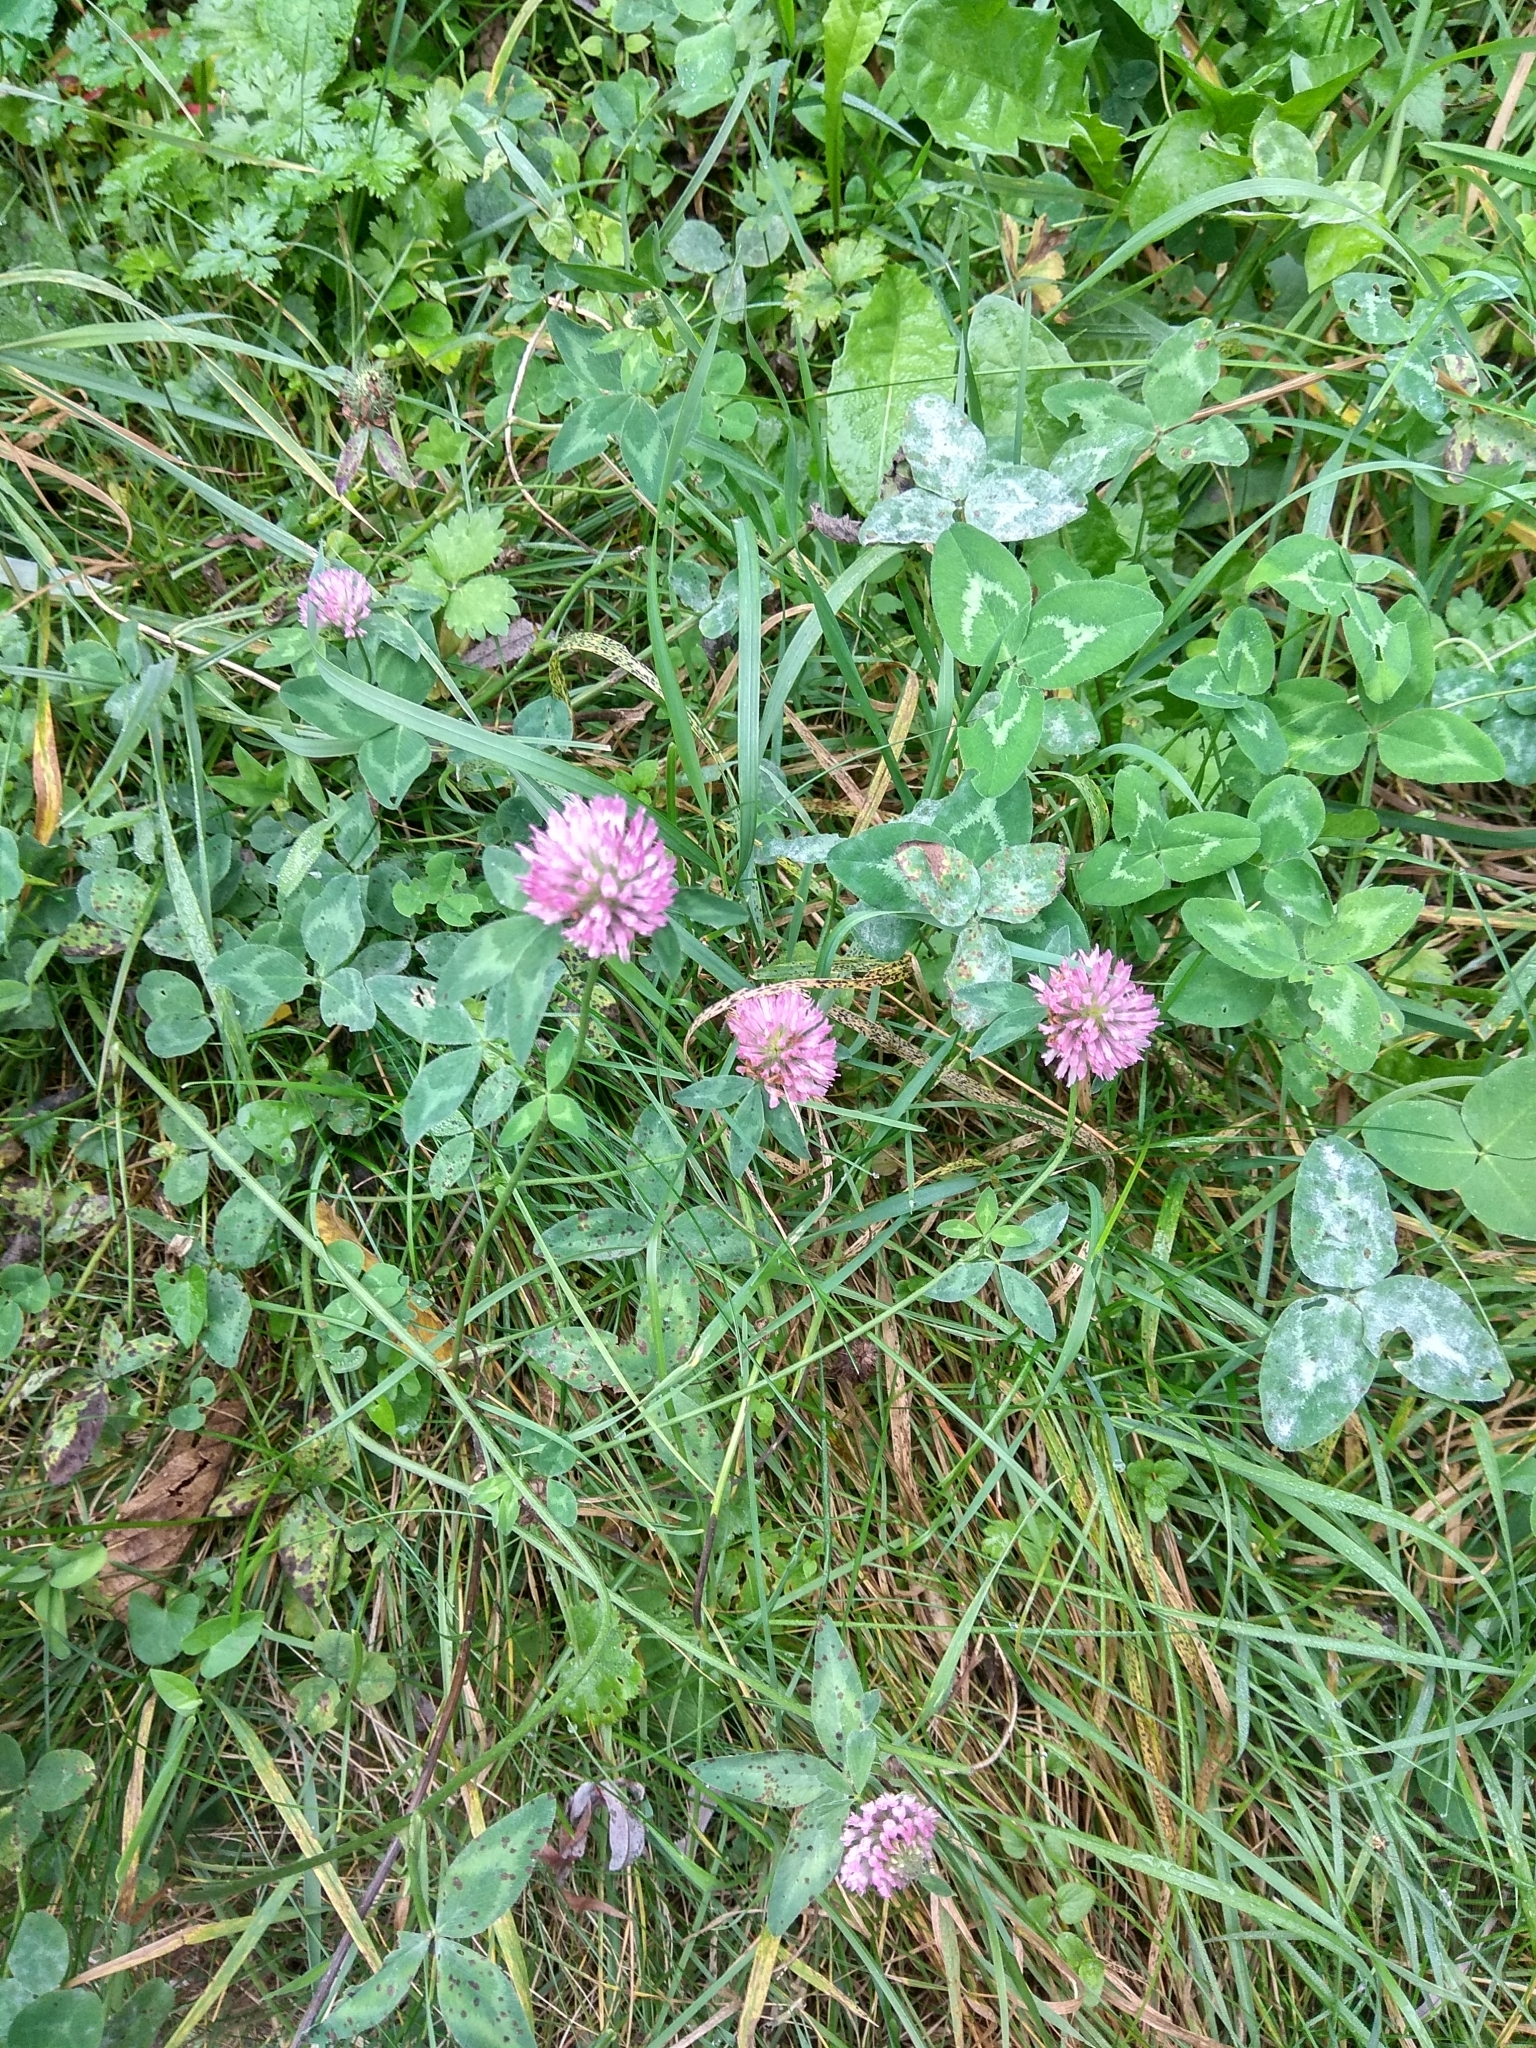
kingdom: Plantae
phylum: Tracheophyta
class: Magnoliopsida
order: Fabales
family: Fabaceae
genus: Trifolium
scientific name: Trifolium pratense
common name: Red clover
